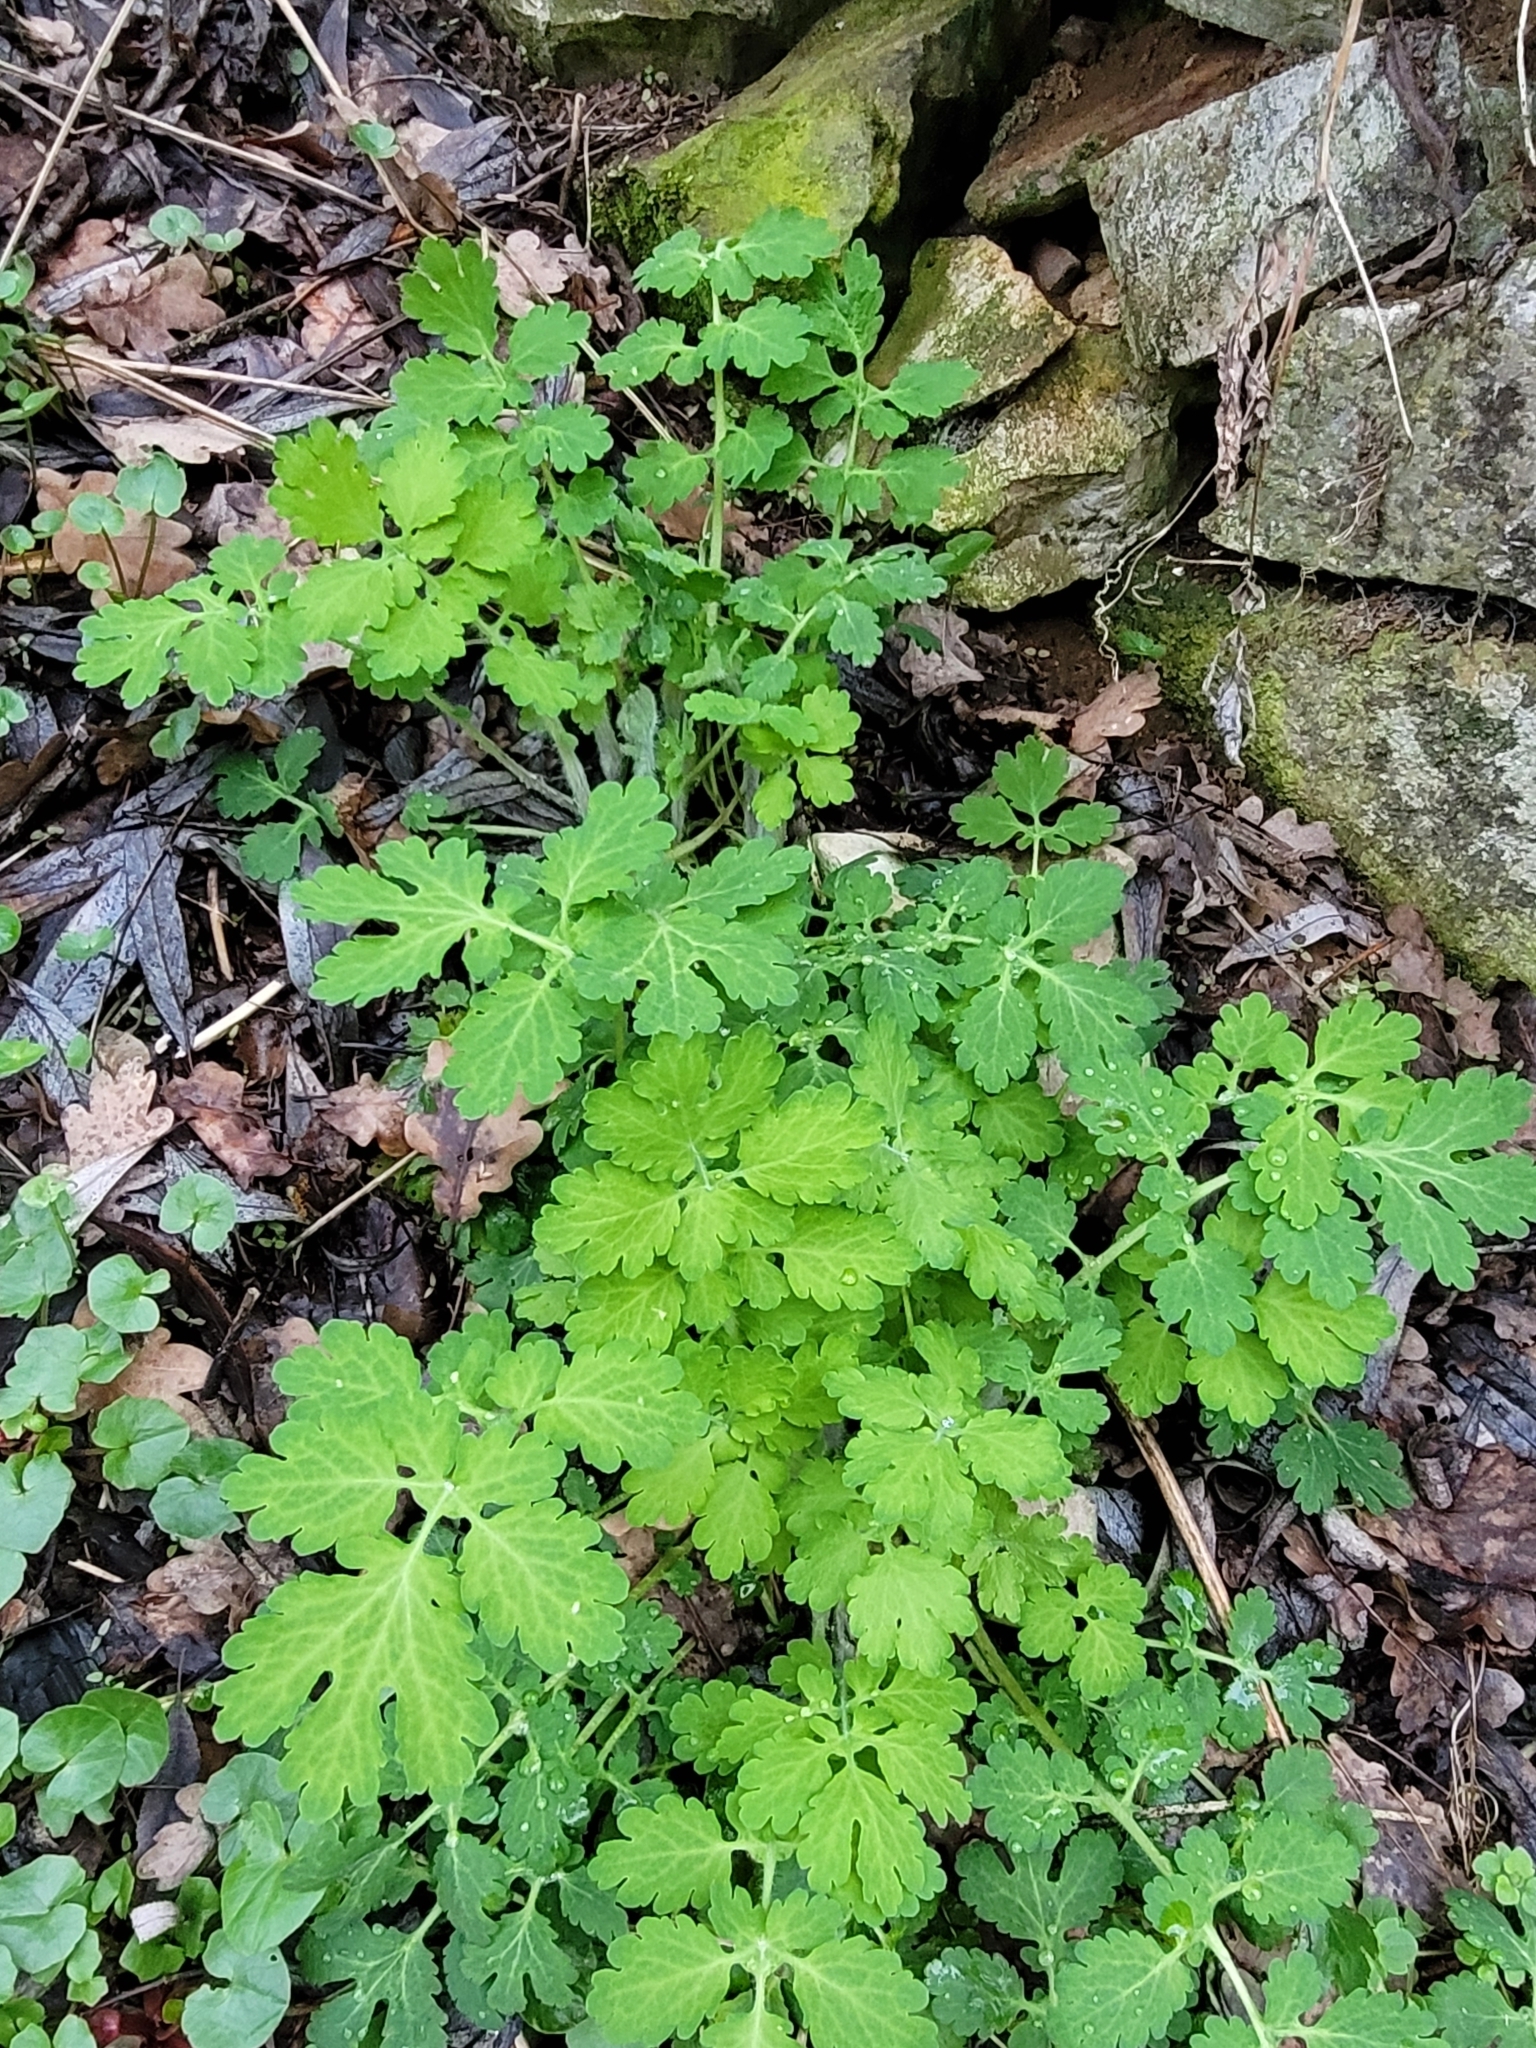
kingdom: Plantae
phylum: Tracheophyta
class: Magnoliopsida
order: Ranunculales
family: Papaveraceae
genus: Chelidonium
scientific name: Chelidonium majus
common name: Greater celandine
